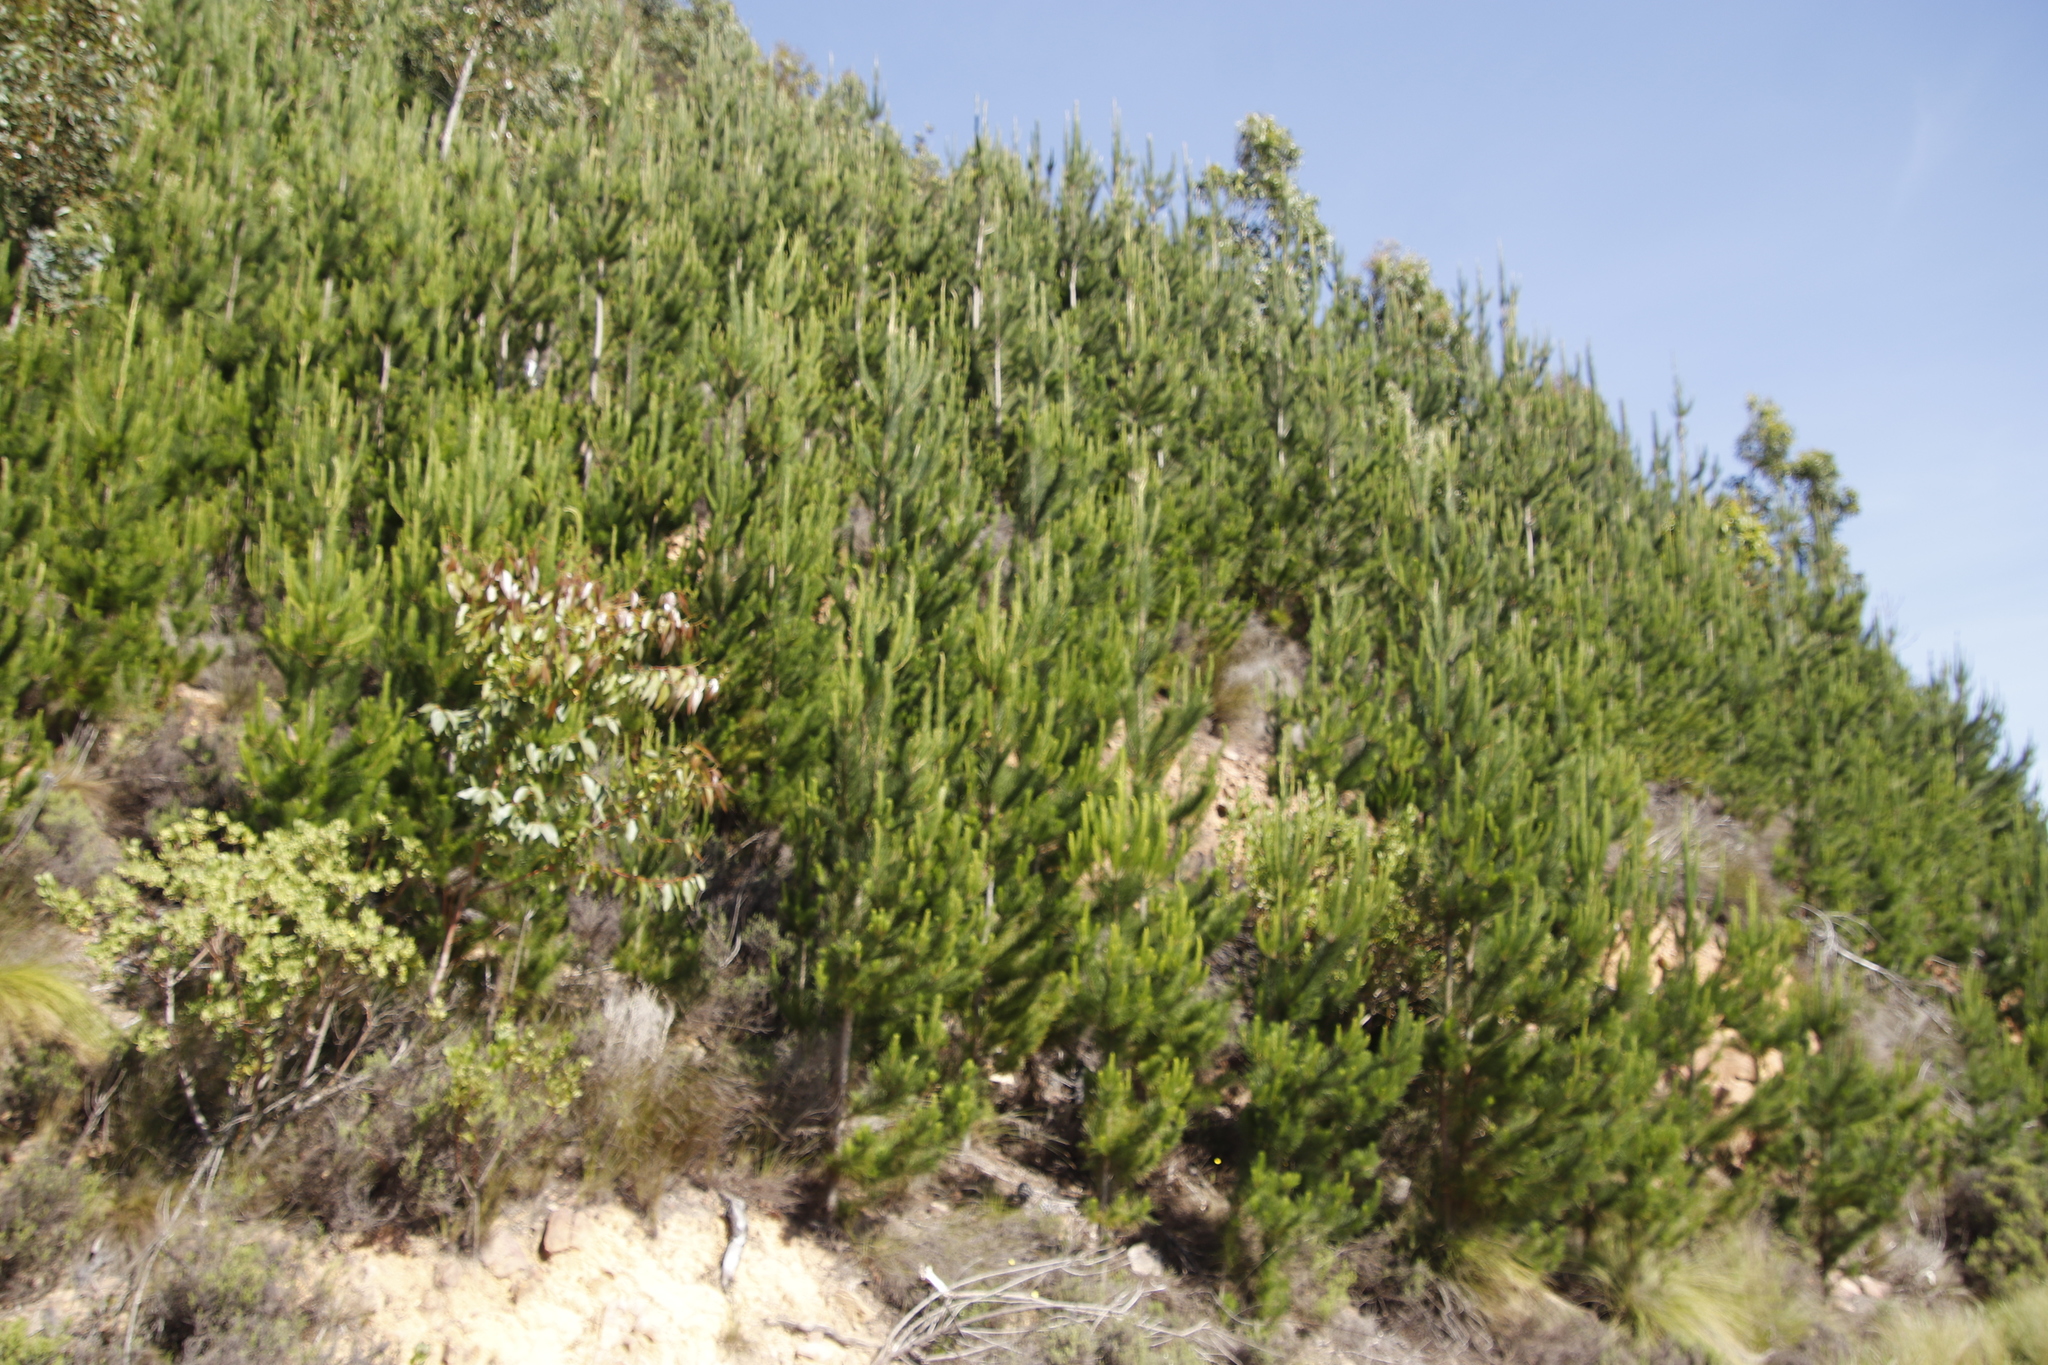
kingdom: Plantae
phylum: Tracheophyta
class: Pinopsida
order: Pinales
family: Pinaceae
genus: Pinus
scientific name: Pinus radiata
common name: Monterey pine
